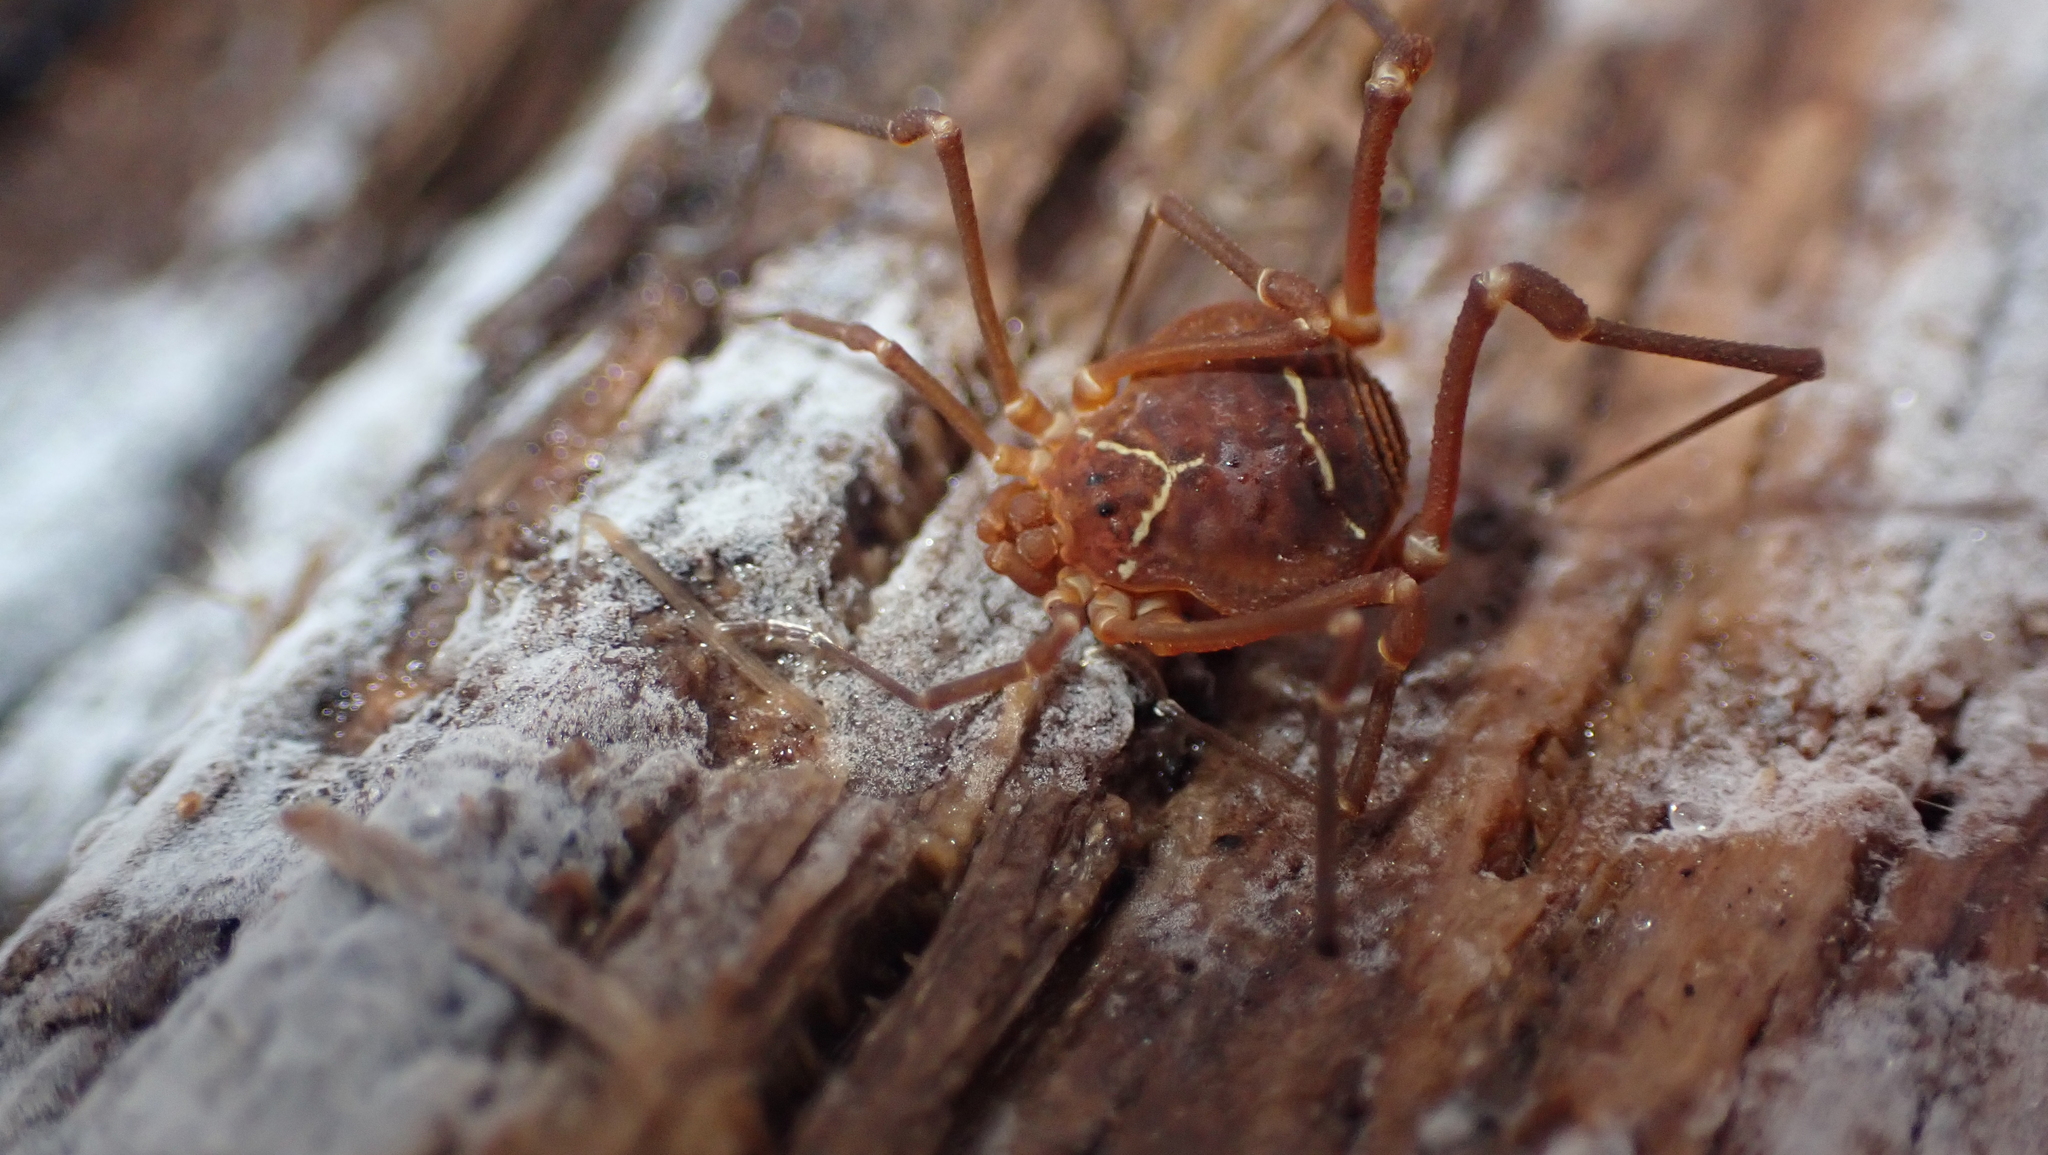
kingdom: Animalia
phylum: Arthropoda
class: Arachnida
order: Opiliones
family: Cosmetidae
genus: Libitioides
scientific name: Libitioides sayi
